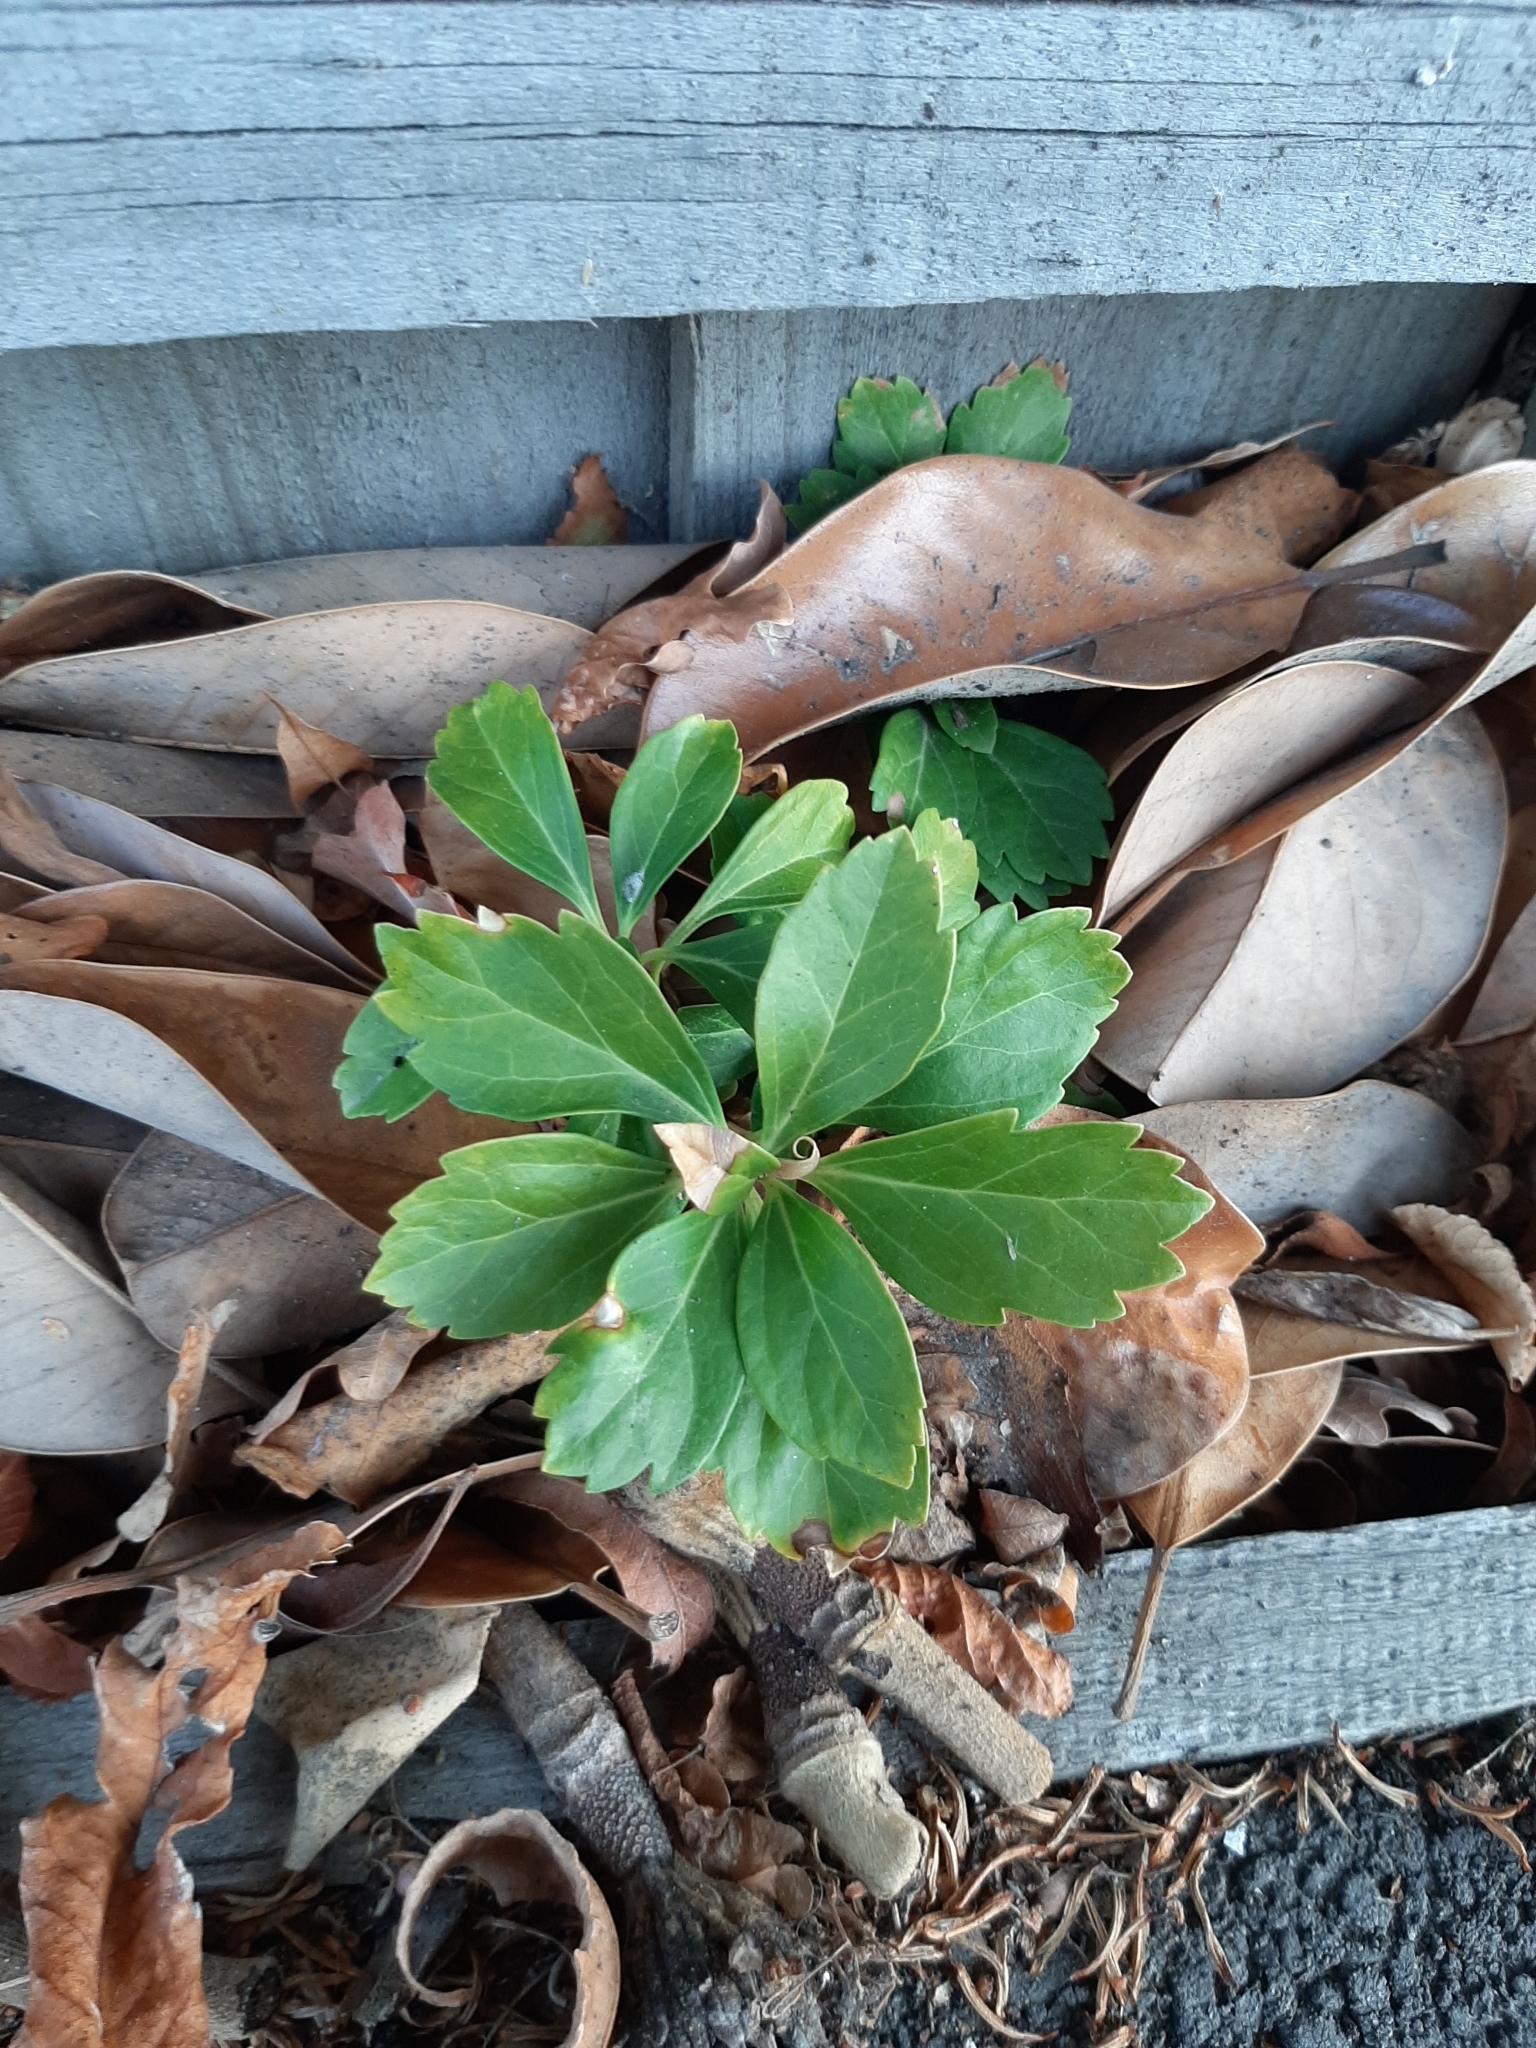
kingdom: Plantae
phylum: Tracheophyta
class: Magnoliopsida
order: Buxales
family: Buxaceae
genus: Pachysandra
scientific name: Pachysandra terminalis
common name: Japanese pachysandra
